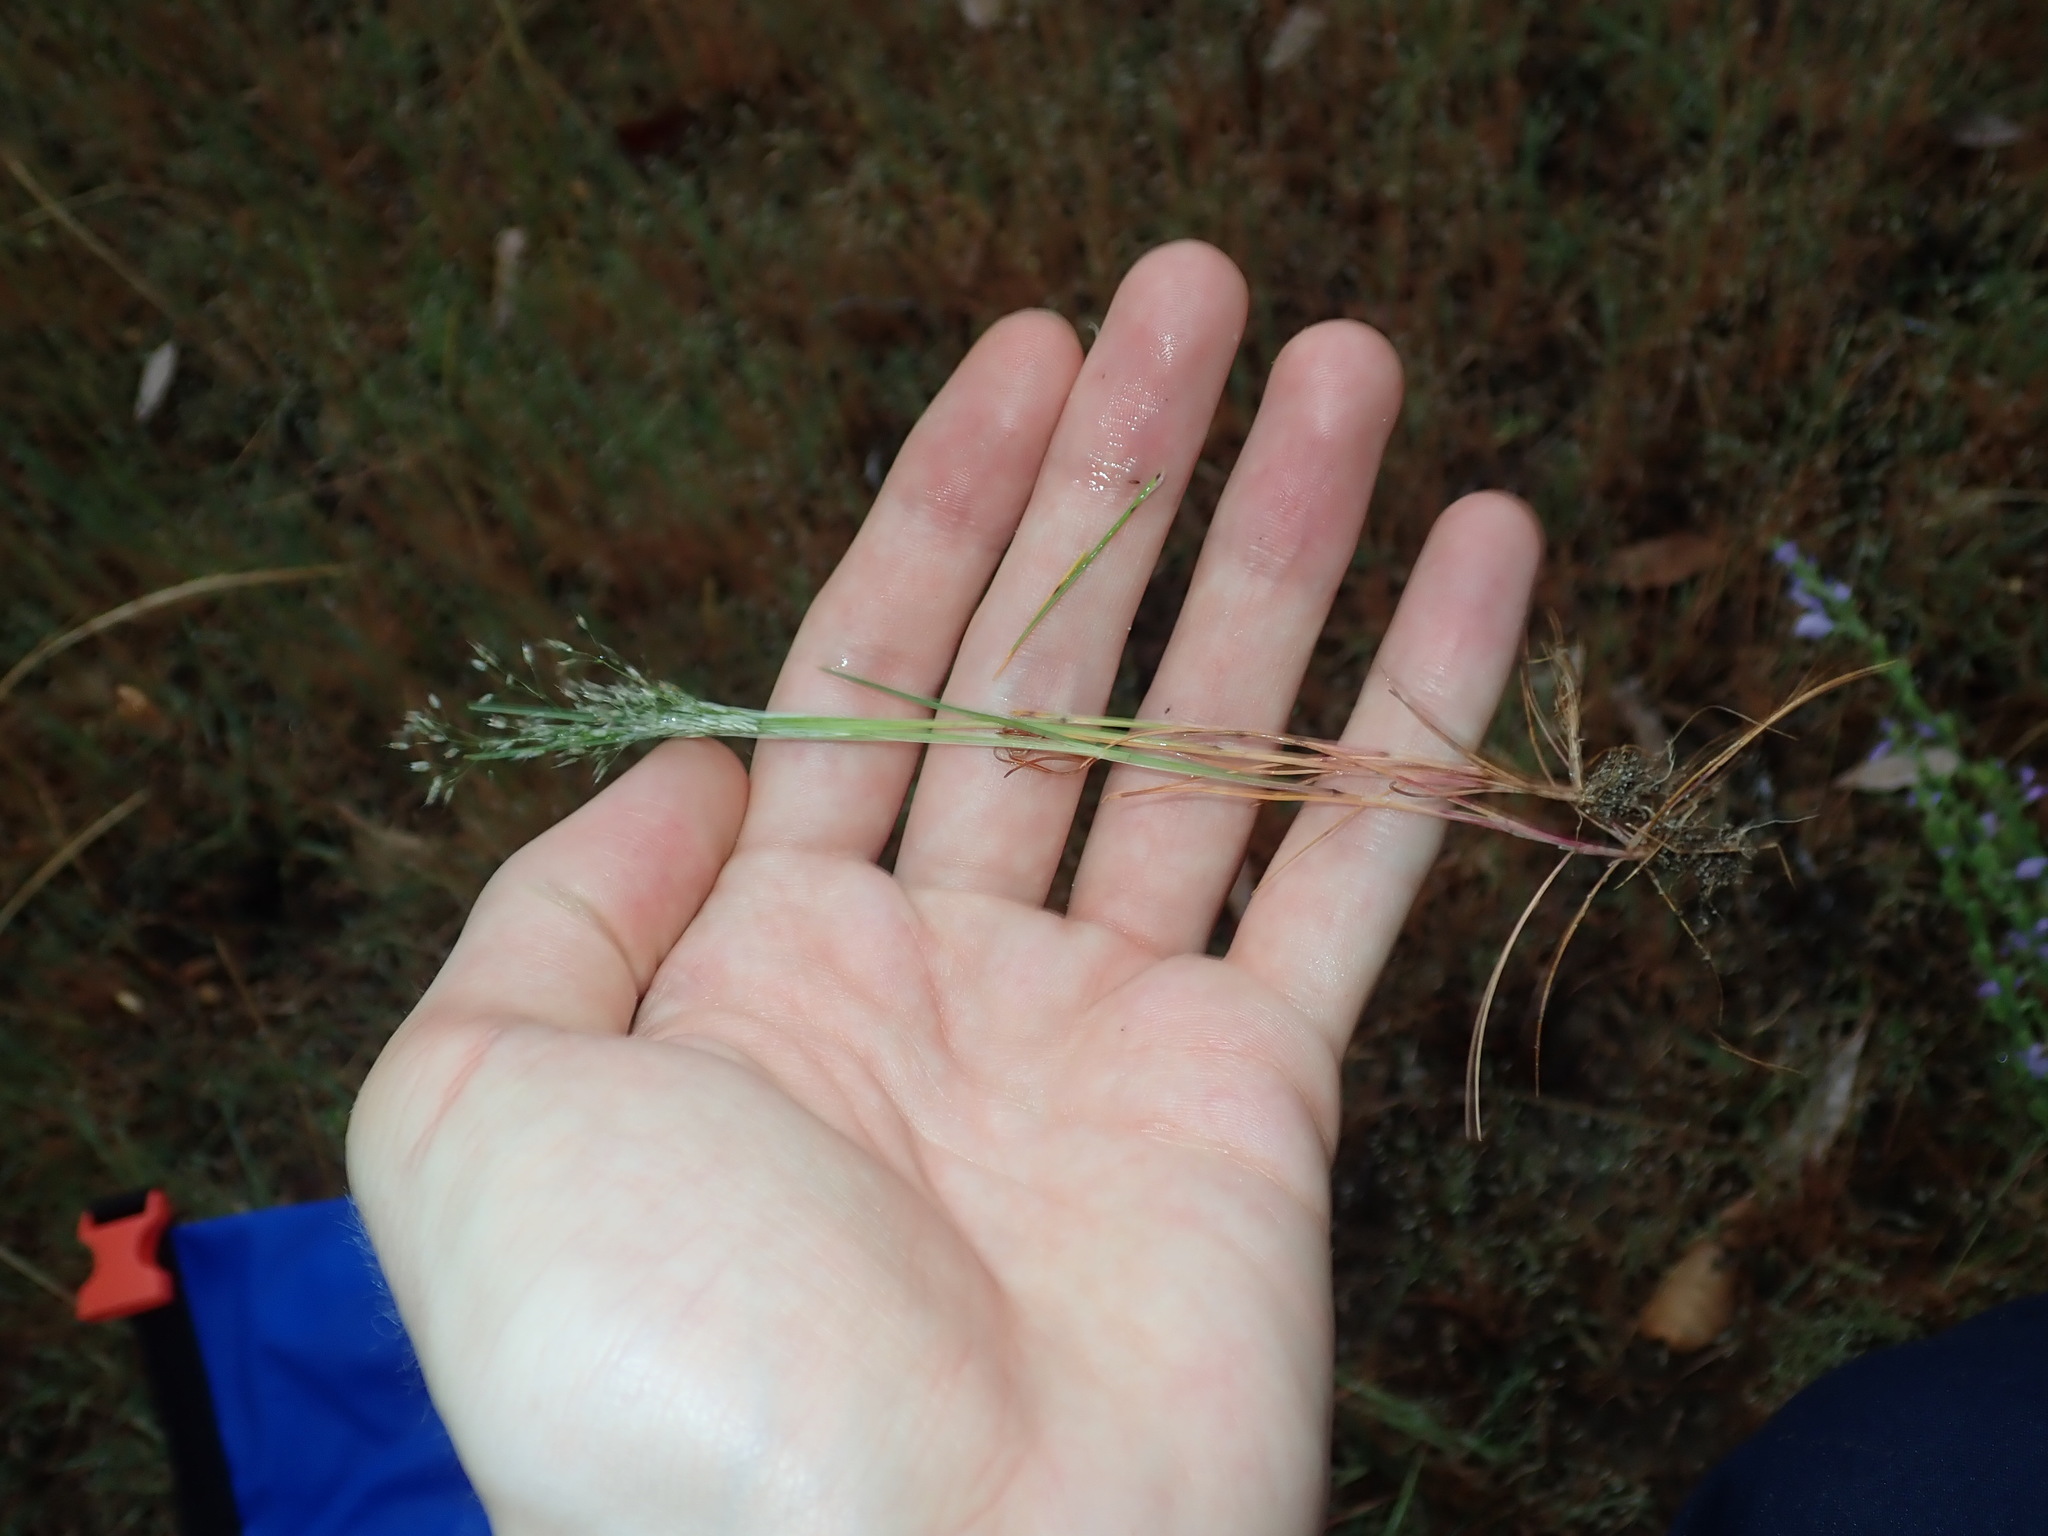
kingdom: Plantae
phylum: Tracheophyta
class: Liliopsida
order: Poales
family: Poaceae
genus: Aira
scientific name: Aira caryophyllea
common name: Silver hairgrass
